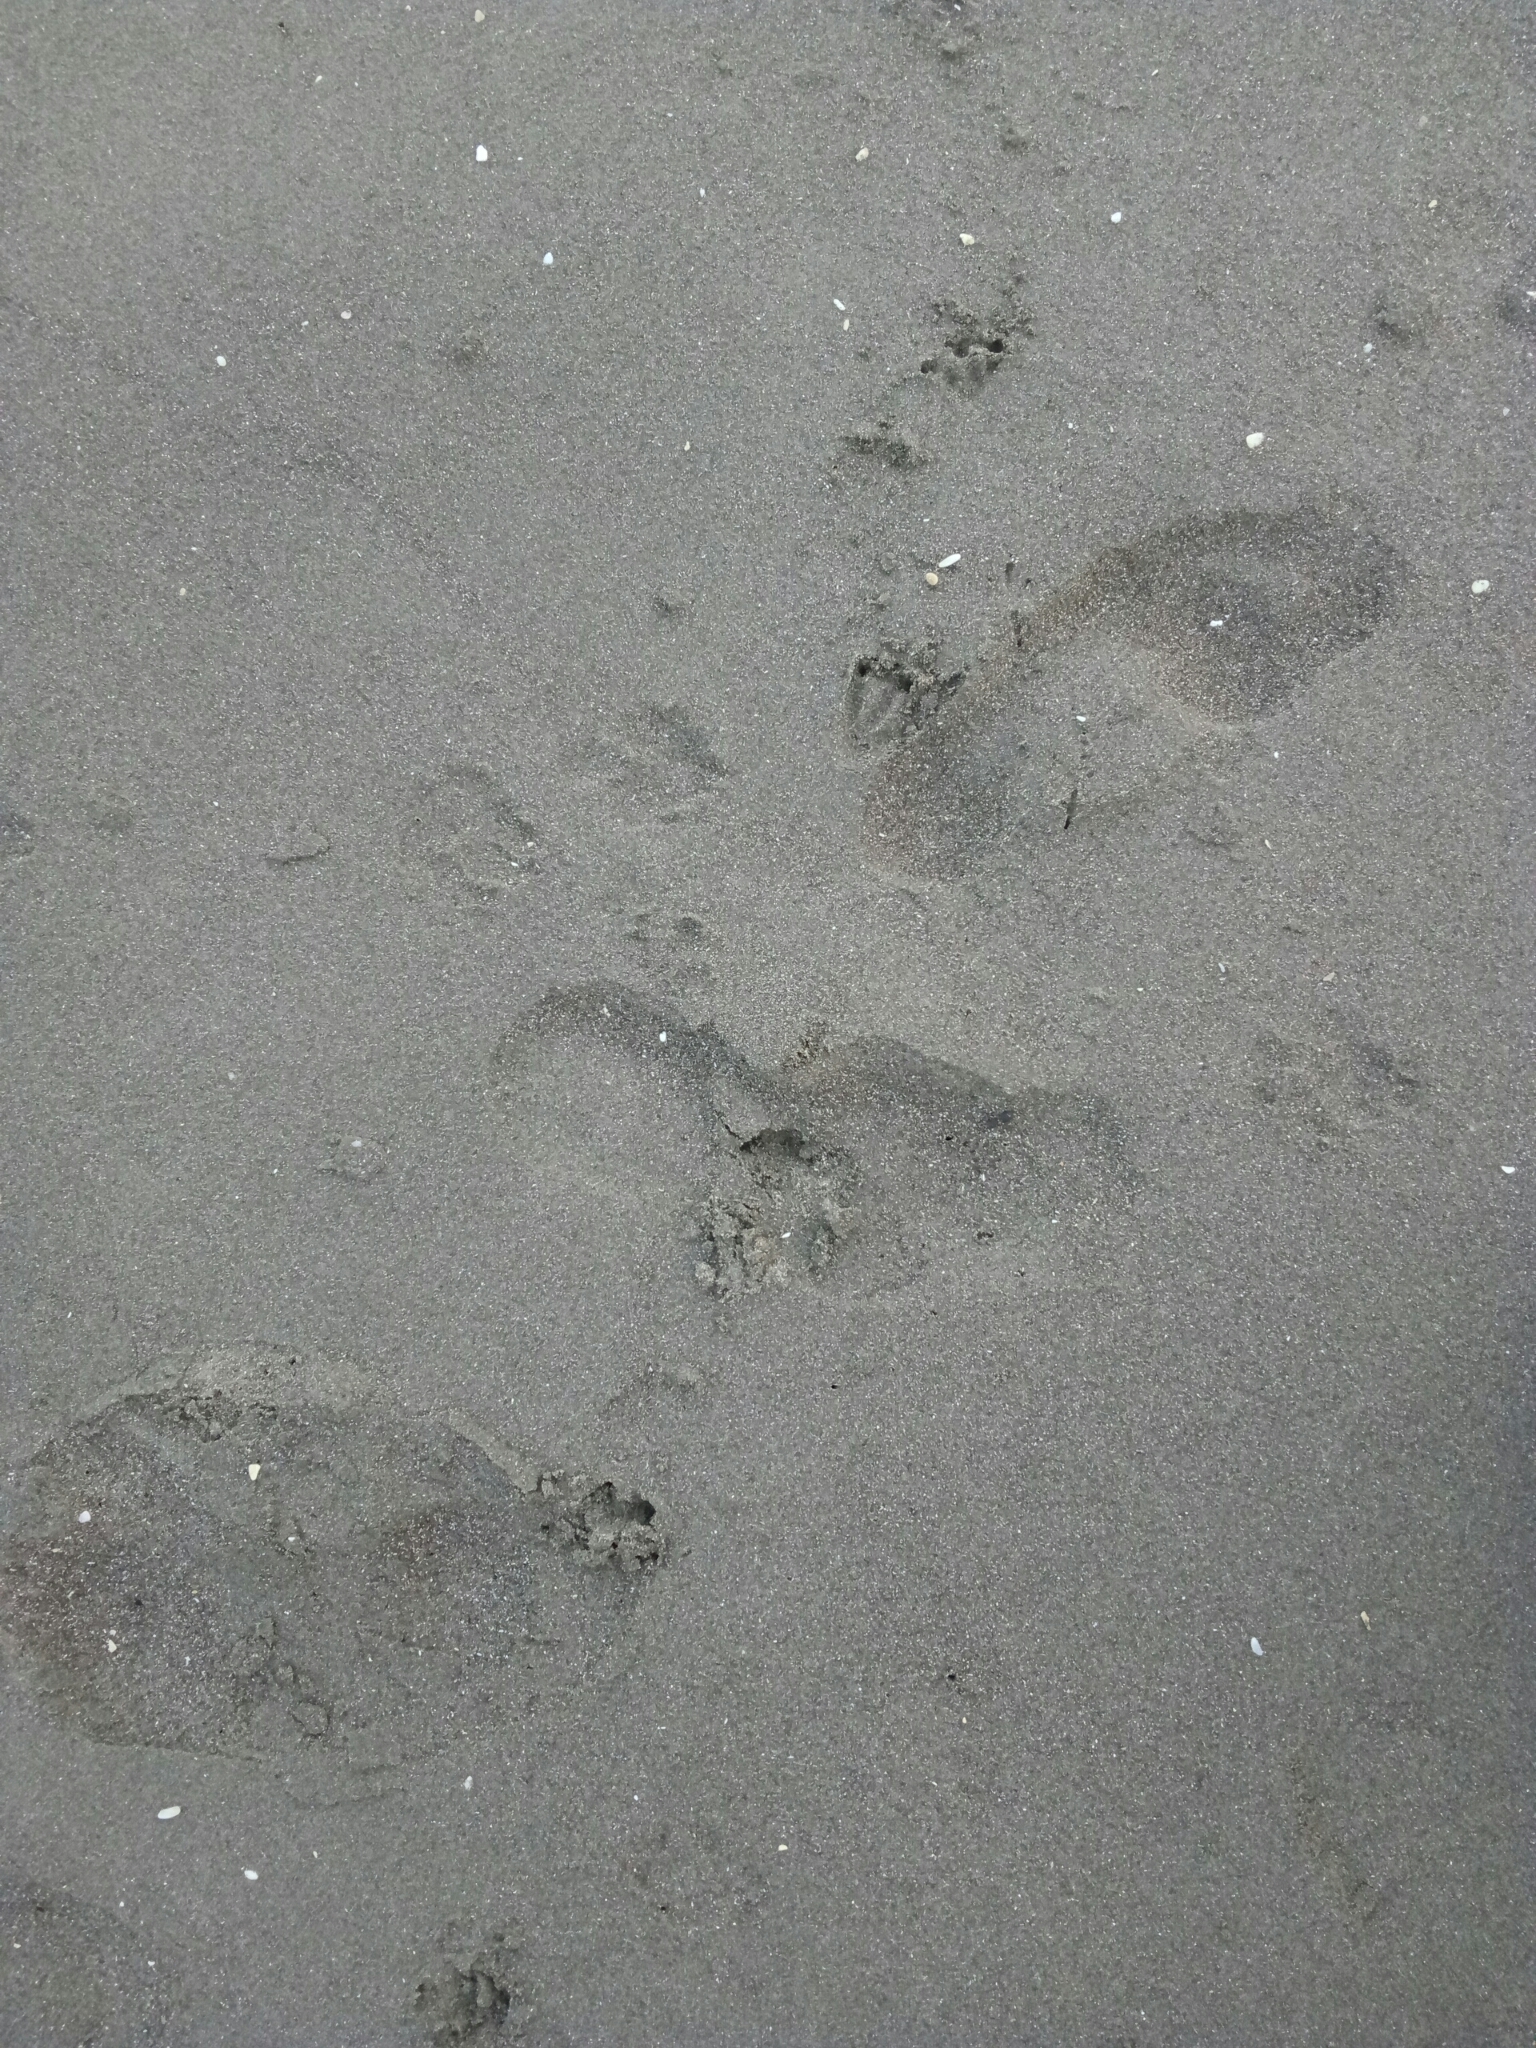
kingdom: Animalia
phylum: Chordata
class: Aves
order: Sphenisciformes
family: Spheniscidae
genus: Eudyptula
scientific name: Eudyptula minor
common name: Little penguin
